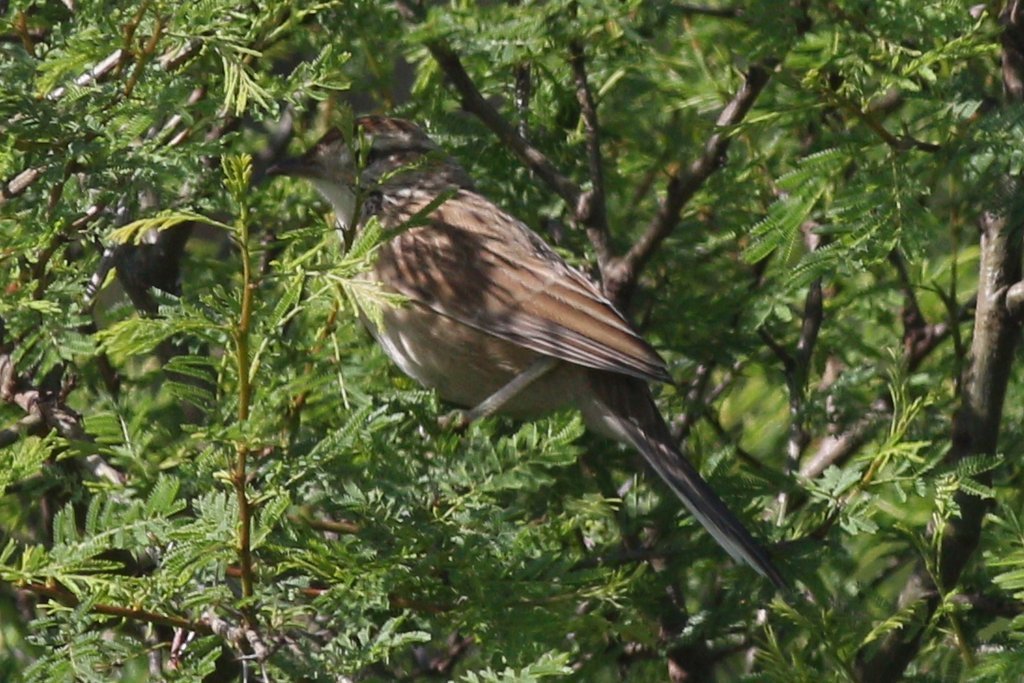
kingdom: Animalia
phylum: Chordata
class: Aves
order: Passeriformes
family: Furnariidae
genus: Anumbius
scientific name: Anumbius annumbi
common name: Firewood-gatherer
